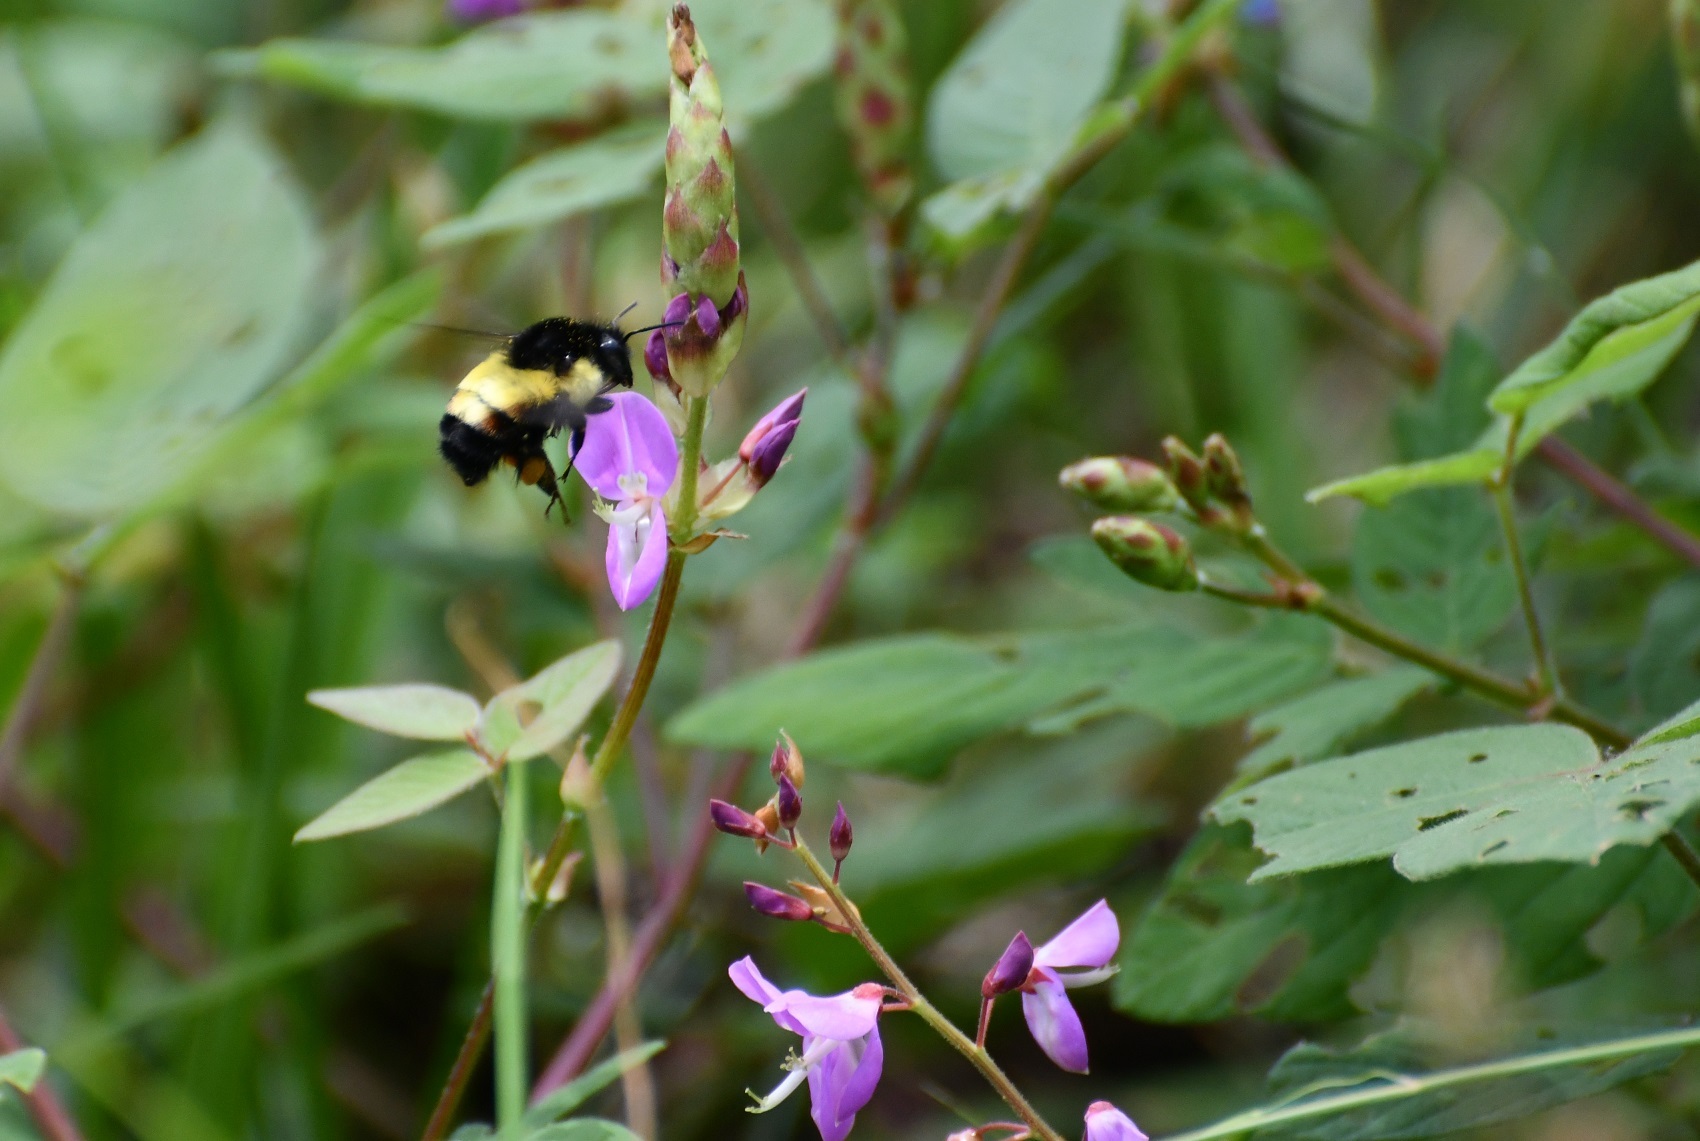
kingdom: Animalia
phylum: Arthropoda
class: Insecta
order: Hymenoptera
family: Apidae
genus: Bombus
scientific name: Bombus ephippiatus
